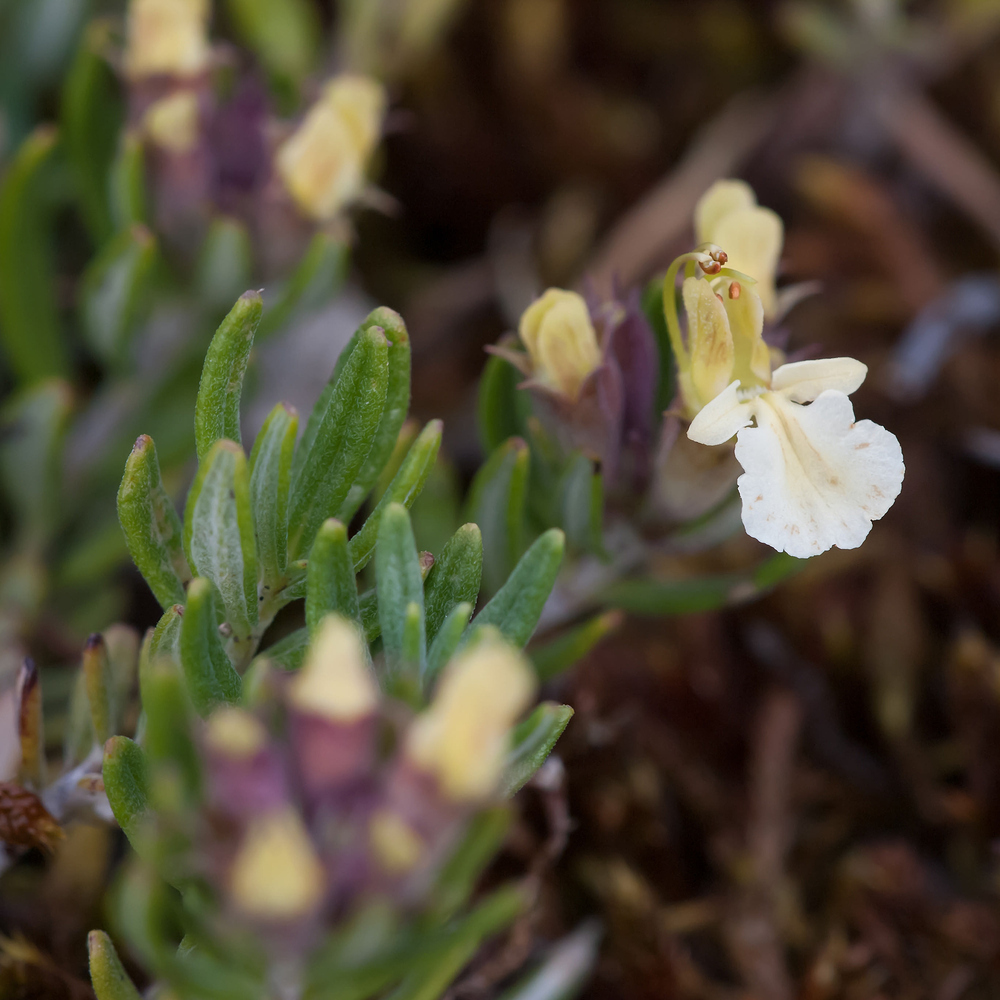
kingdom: Plantae
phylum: Tracheophyta
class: Magnoliopsida
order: Lamiales
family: Lamiaceae
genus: Teucrium
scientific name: Teucrium montanum
